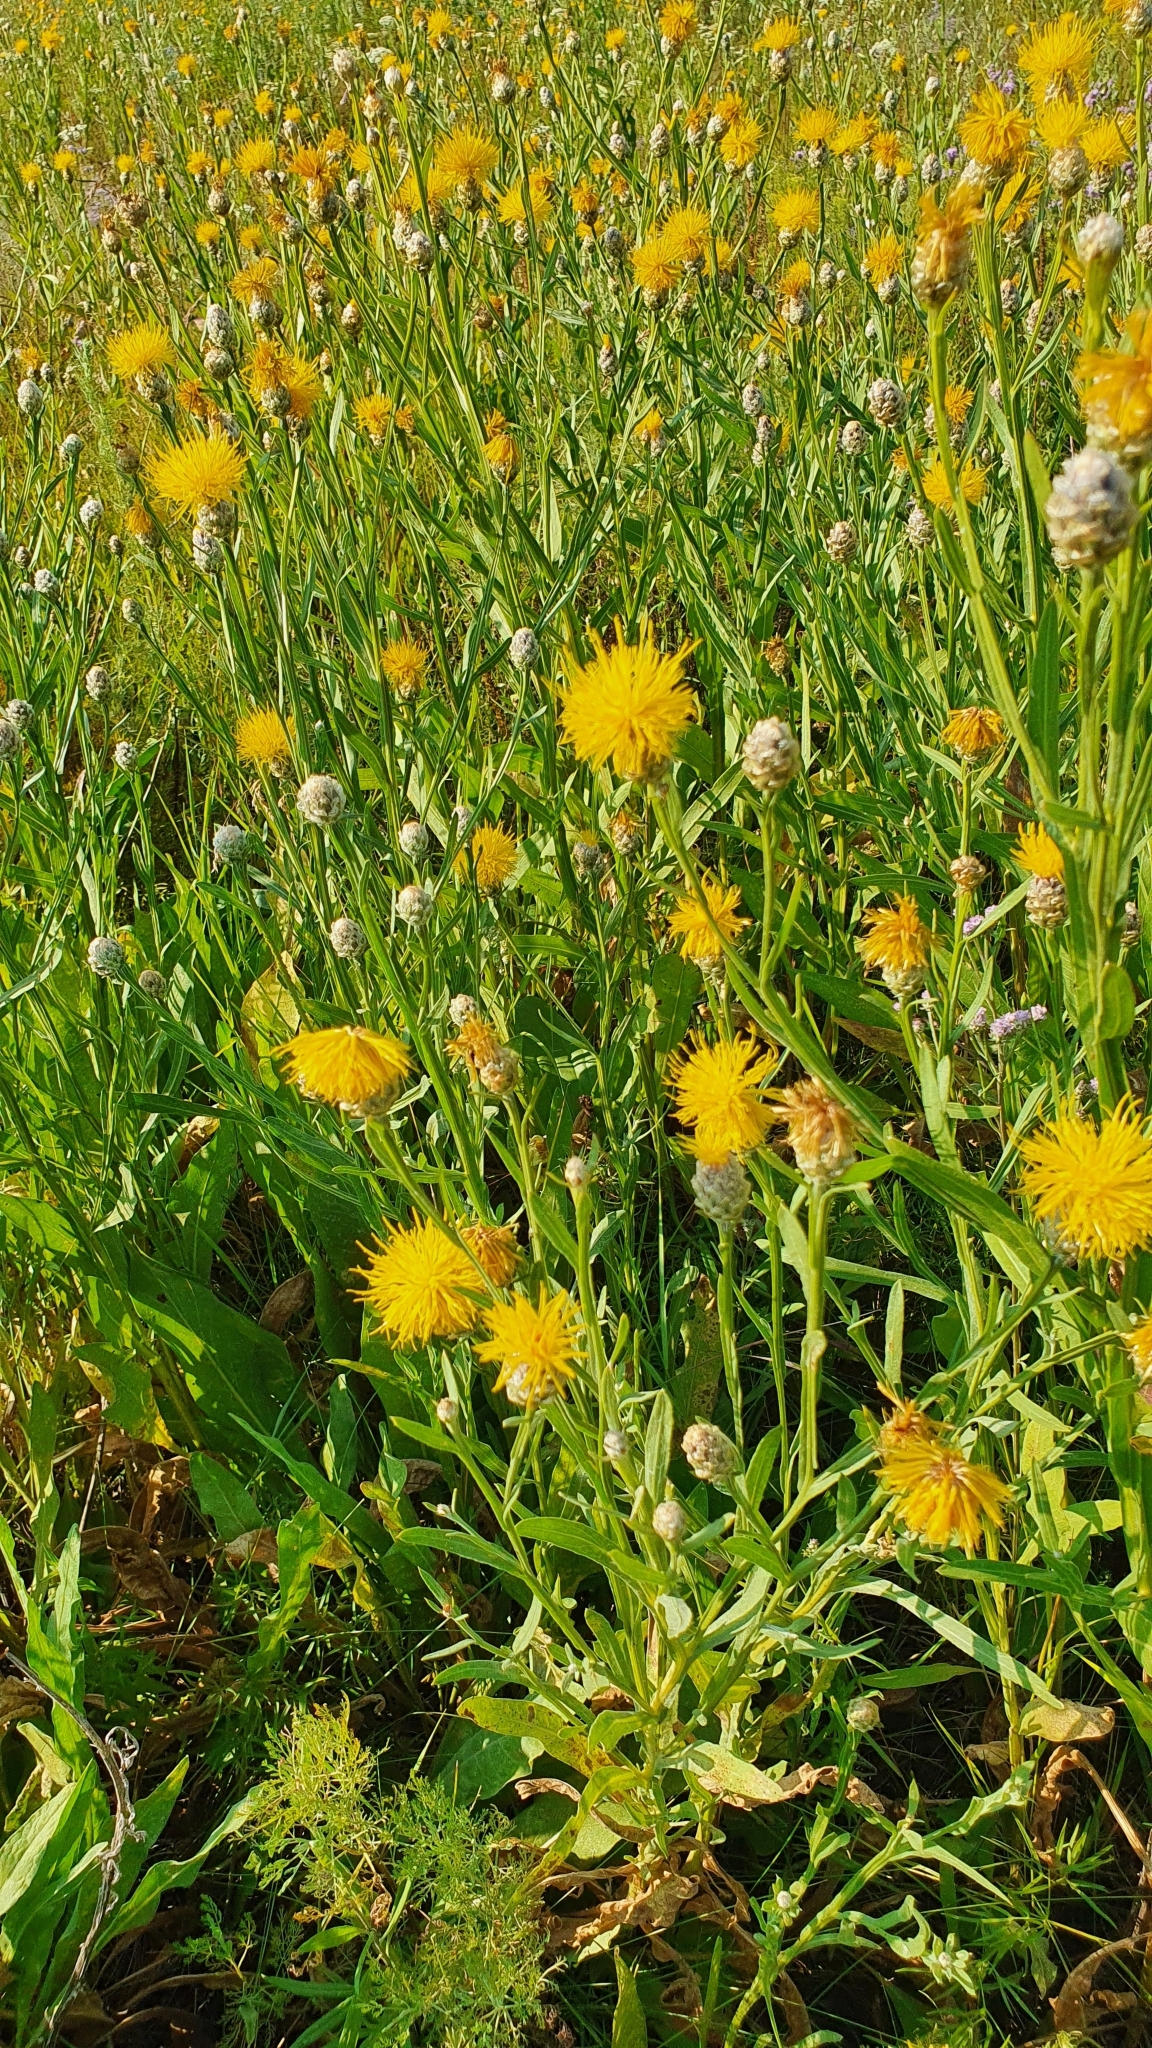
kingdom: Plantae
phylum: Tracheophyta
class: Magnoliopsida
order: Asterales
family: Asteraceae
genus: Centaurea
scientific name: Centaurea glastifolia
